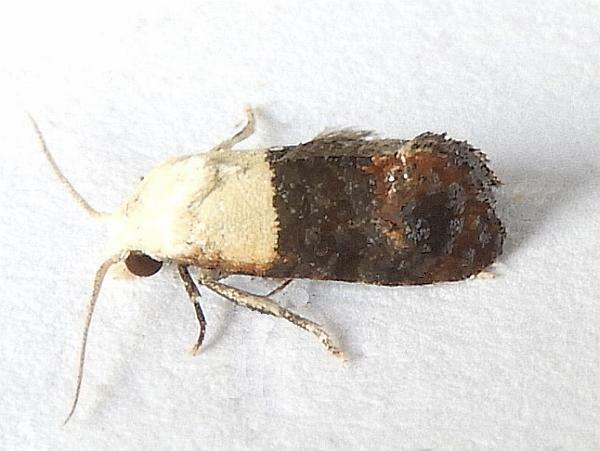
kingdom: Animalia
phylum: Arthropoda
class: Insecta
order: Lepidoptera
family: Tortricidae
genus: Eugnosta
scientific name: Eugnosta erigeronana
